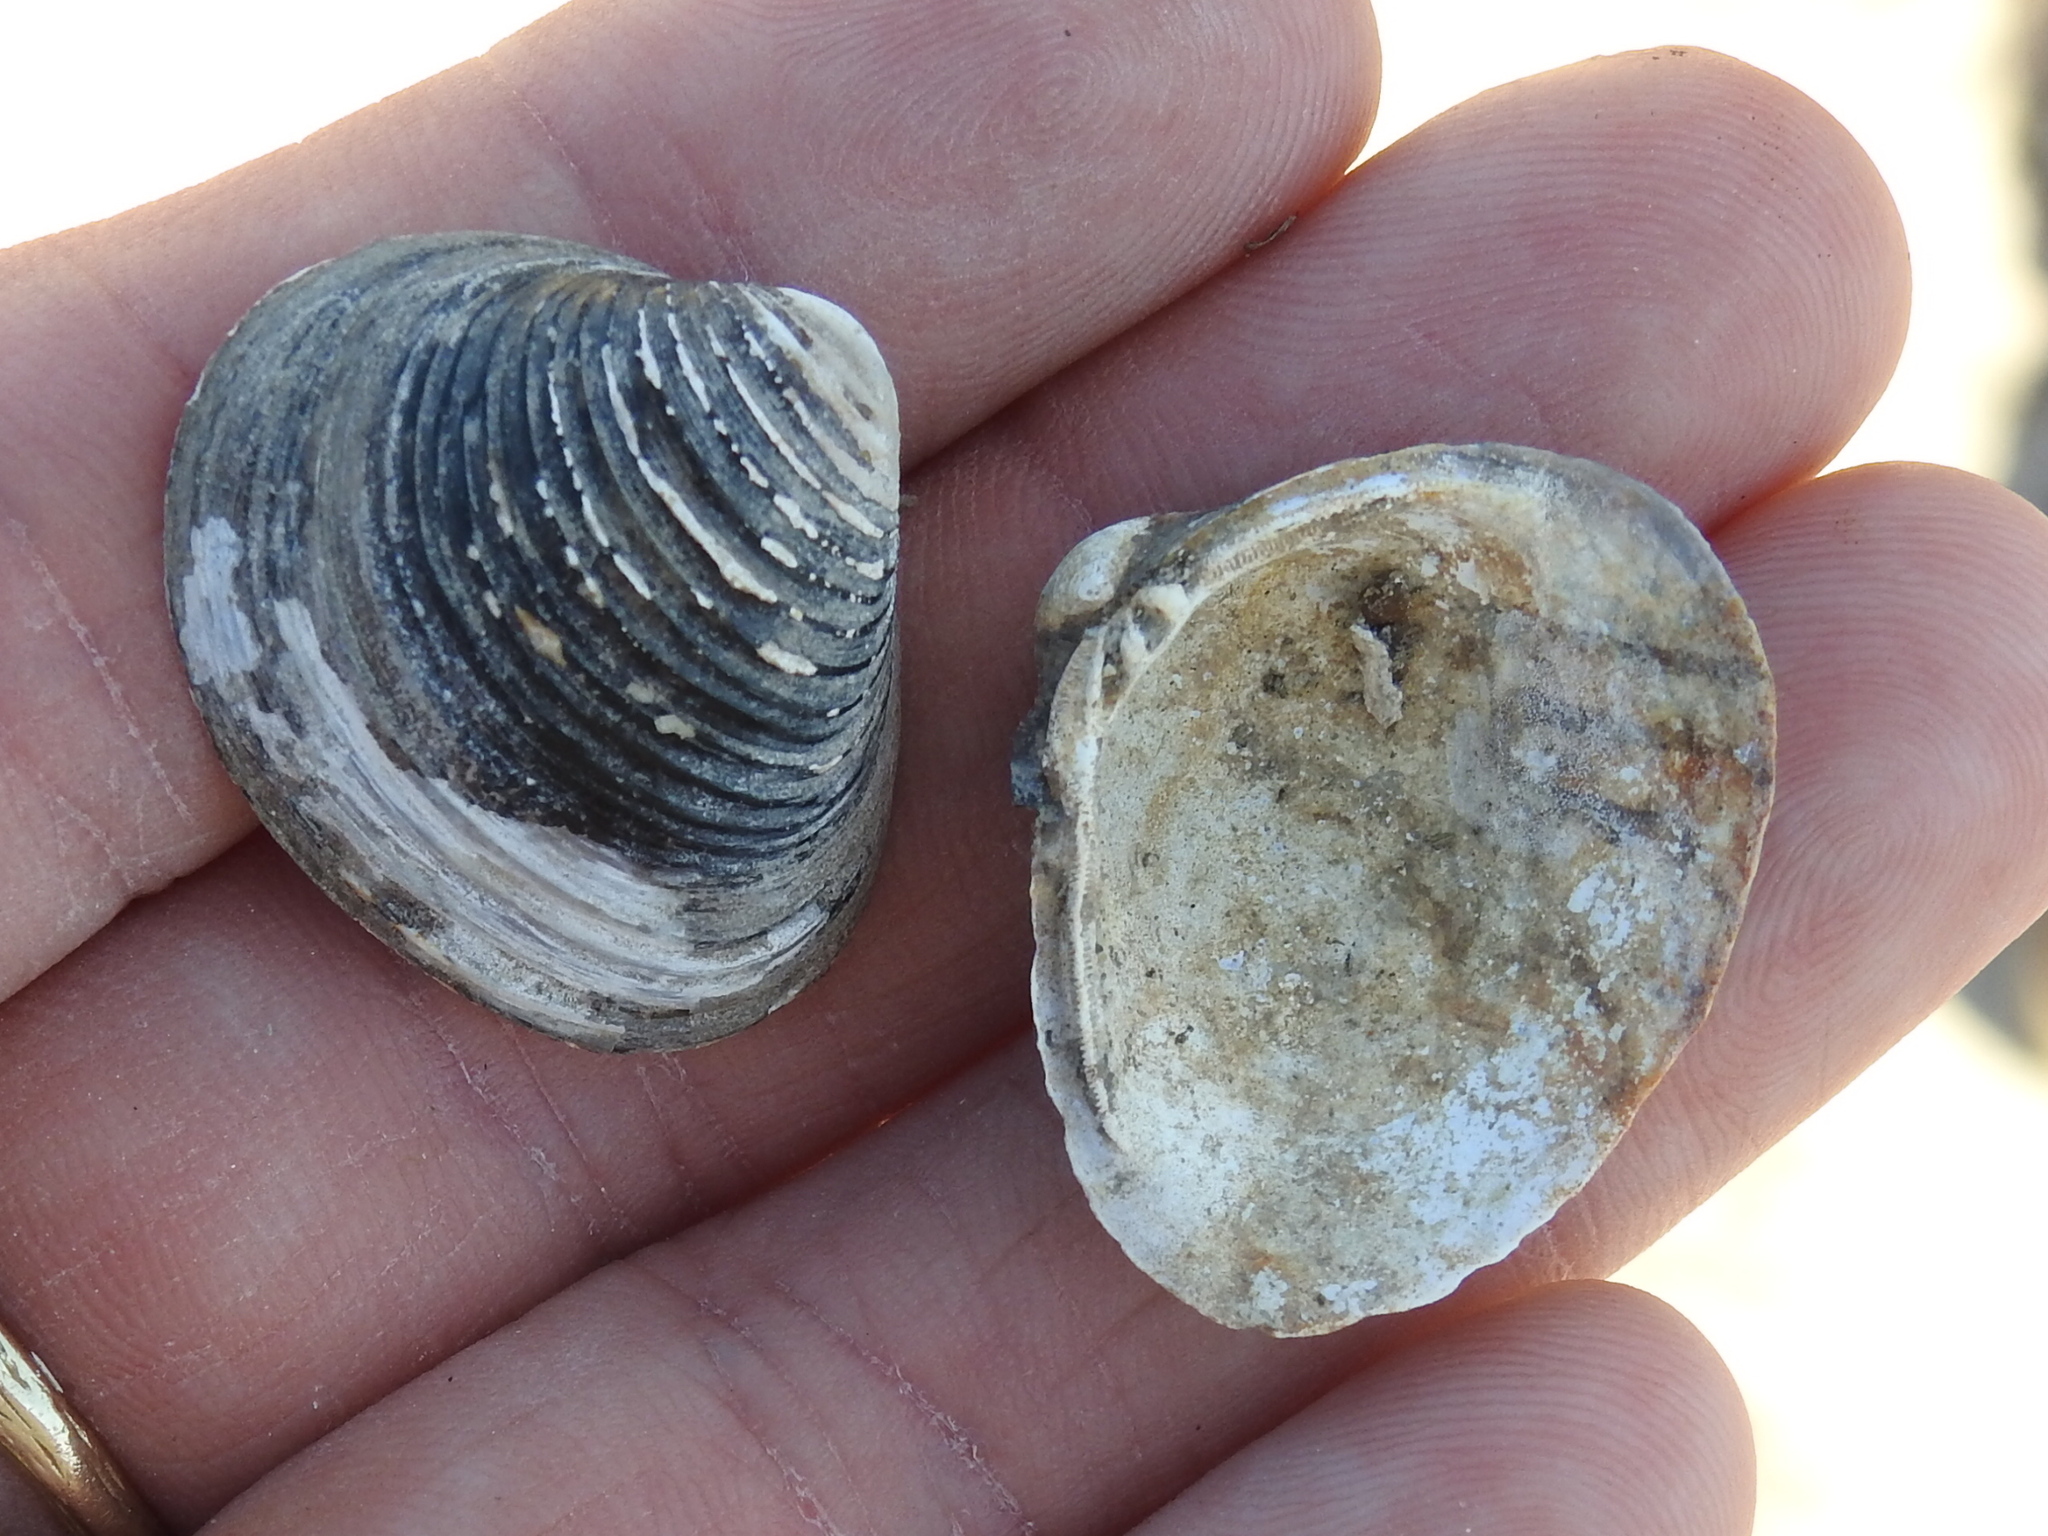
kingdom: Animalia
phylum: Mollusca
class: Bivalvia
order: Venerida
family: Cyrenidae
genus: Corbicula
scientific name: Corbicula fluminea
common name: Asian clam
